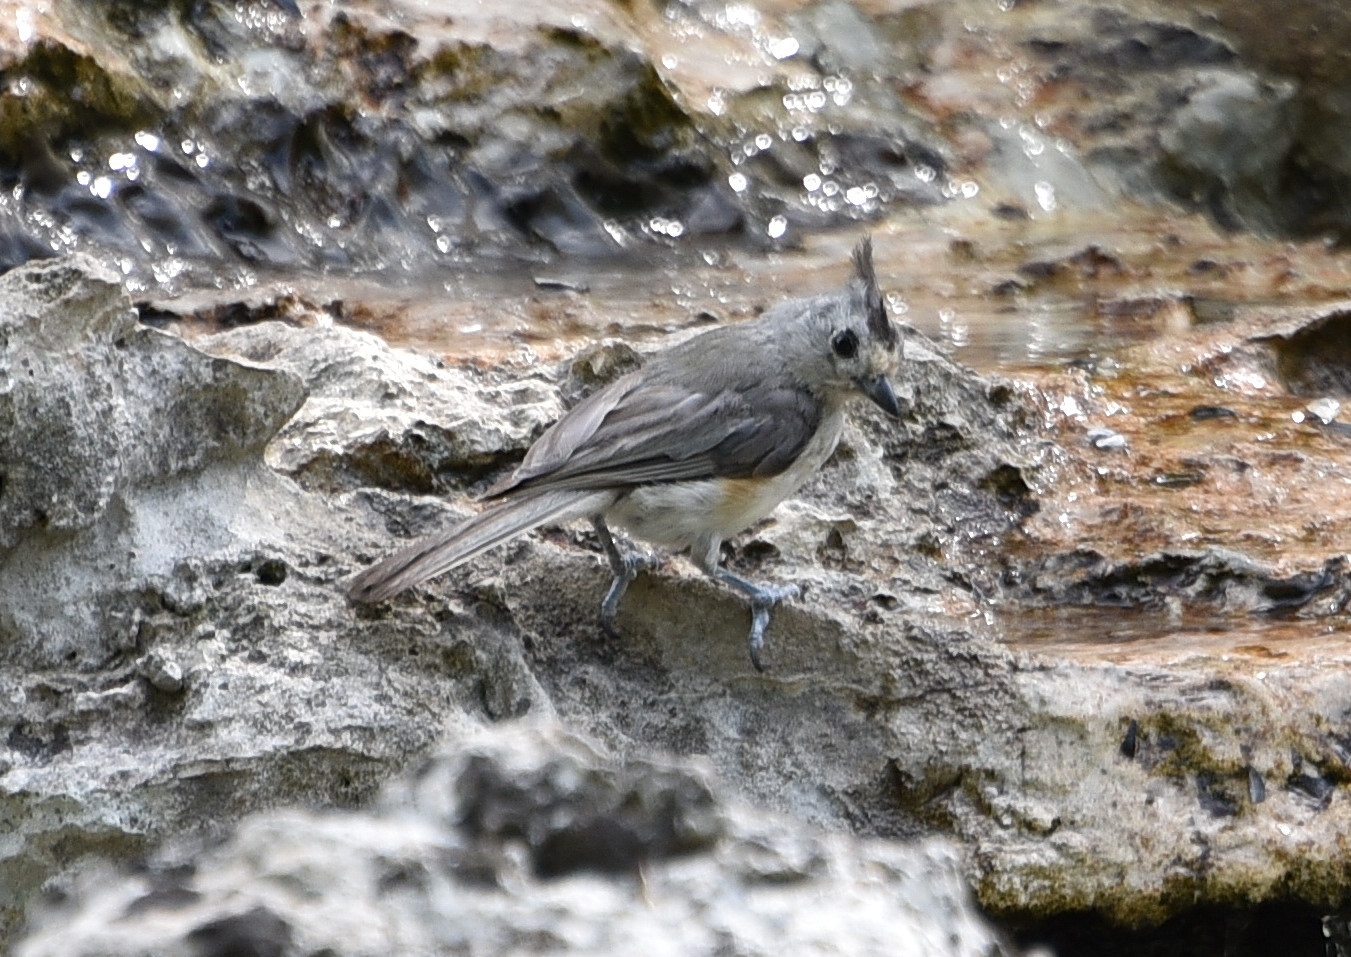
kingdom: Animalia
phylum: Chordata
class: Aves
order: Passeriformes
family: Paridae
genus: Baeolophus
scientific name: Baeolophus atricristatus
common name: Black-crested titmouse
